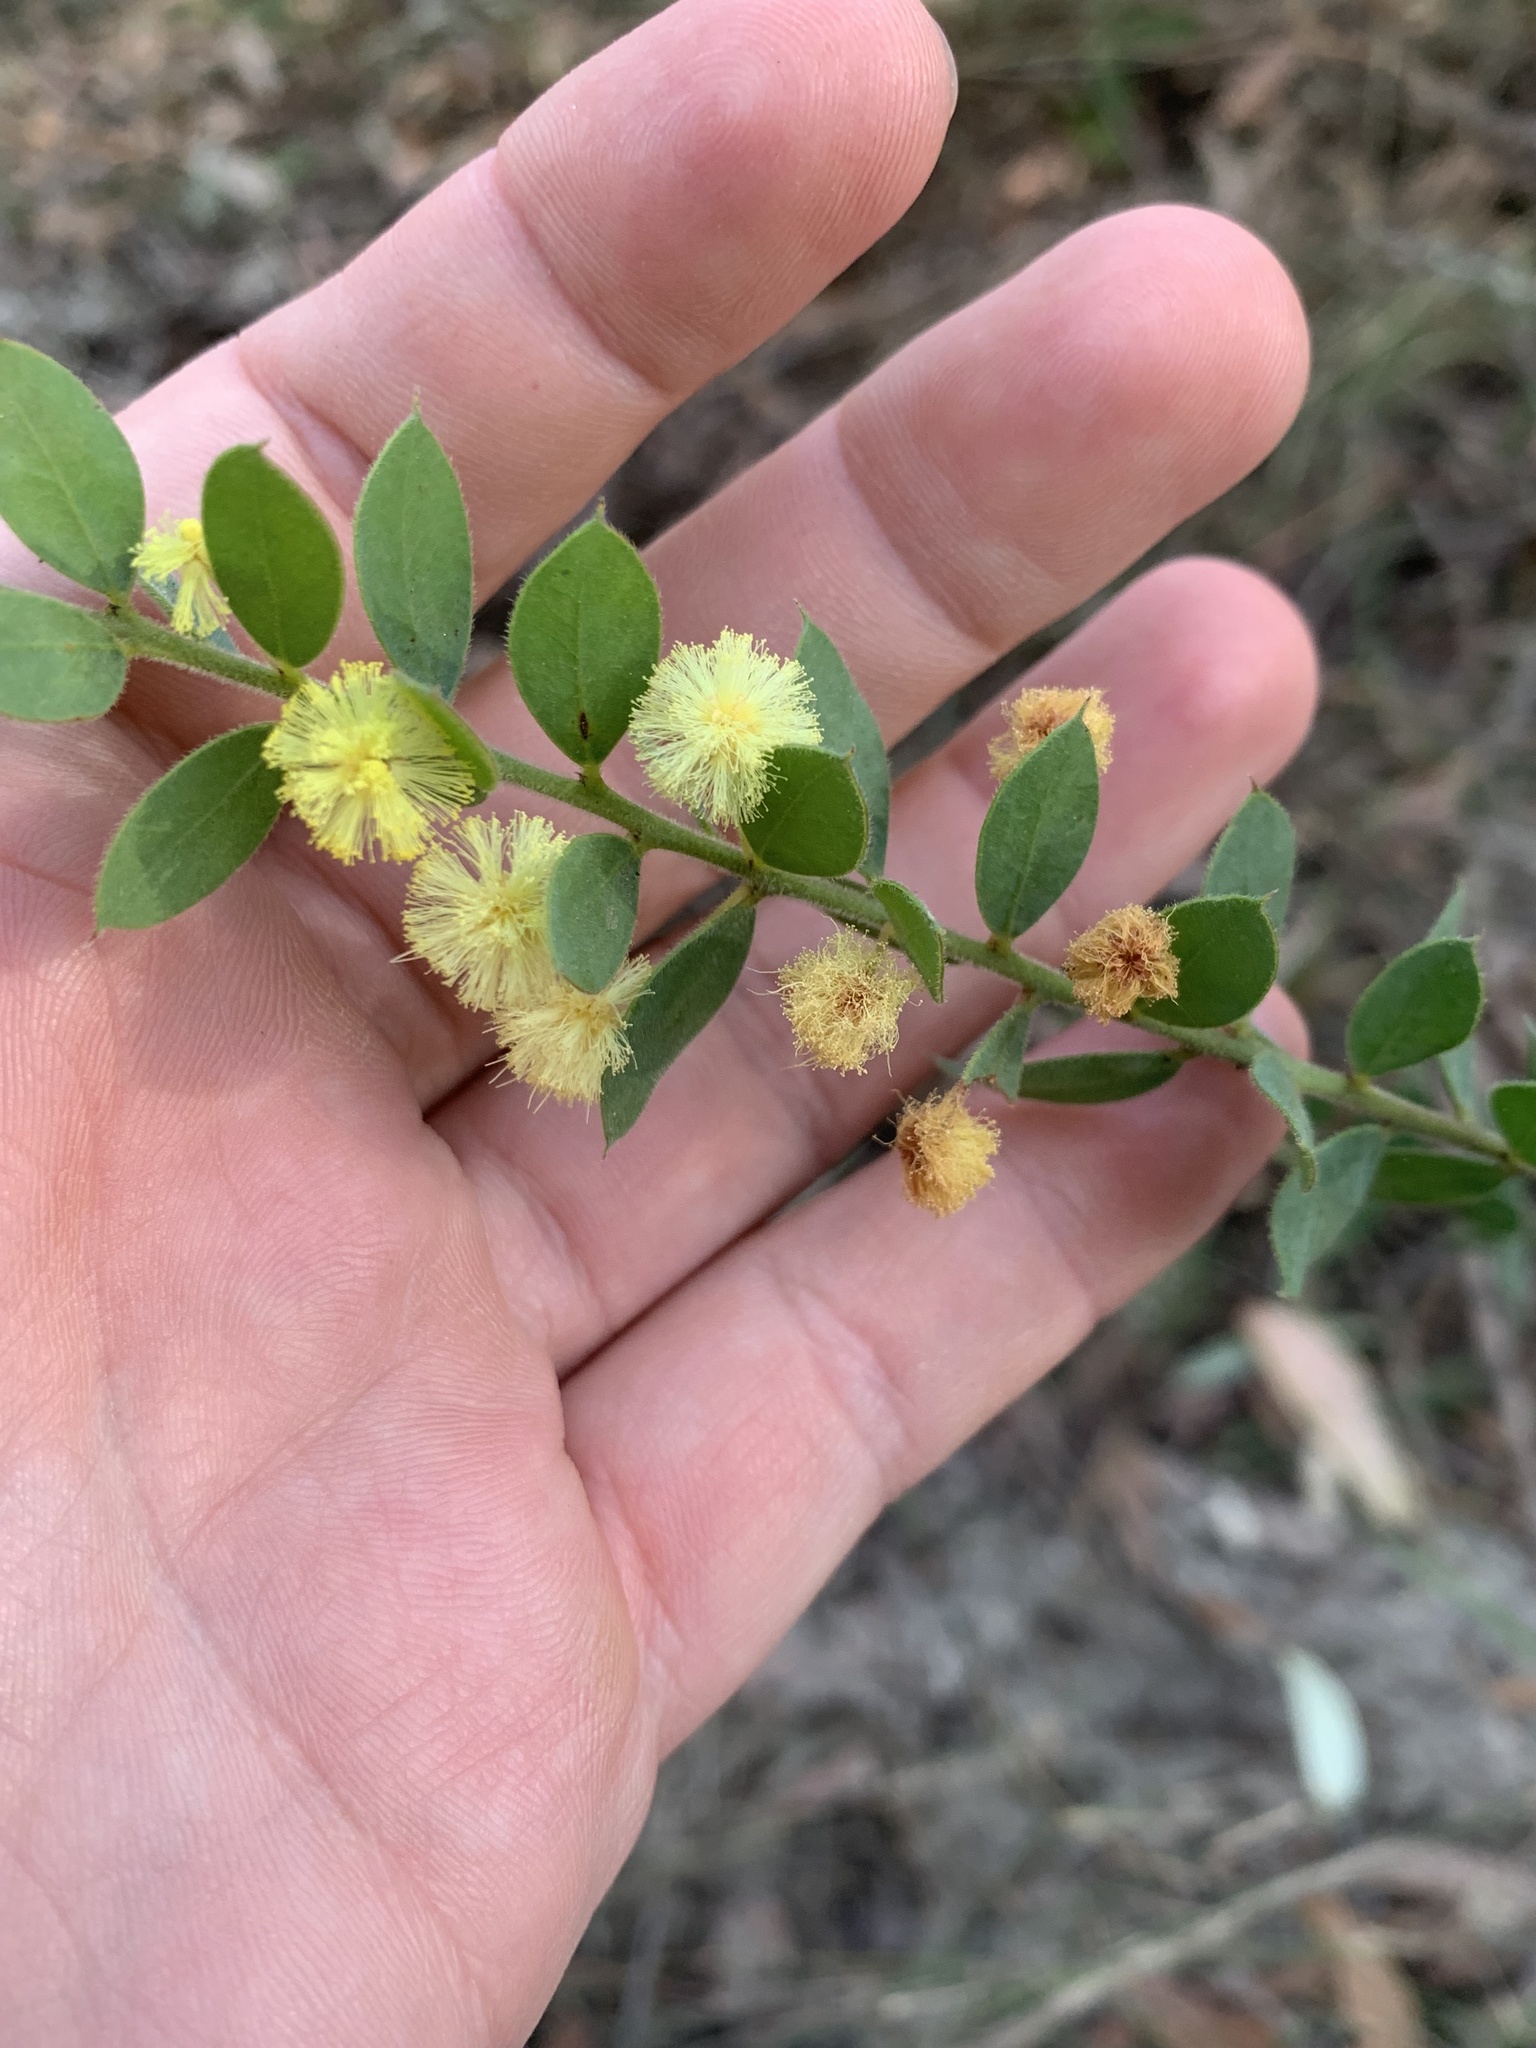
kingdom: Plantae
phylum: Tracheophyta
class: Magnoliopsida
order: Fabales
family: Fabaceae
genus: Acacia
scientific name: Acacia cremiflora
